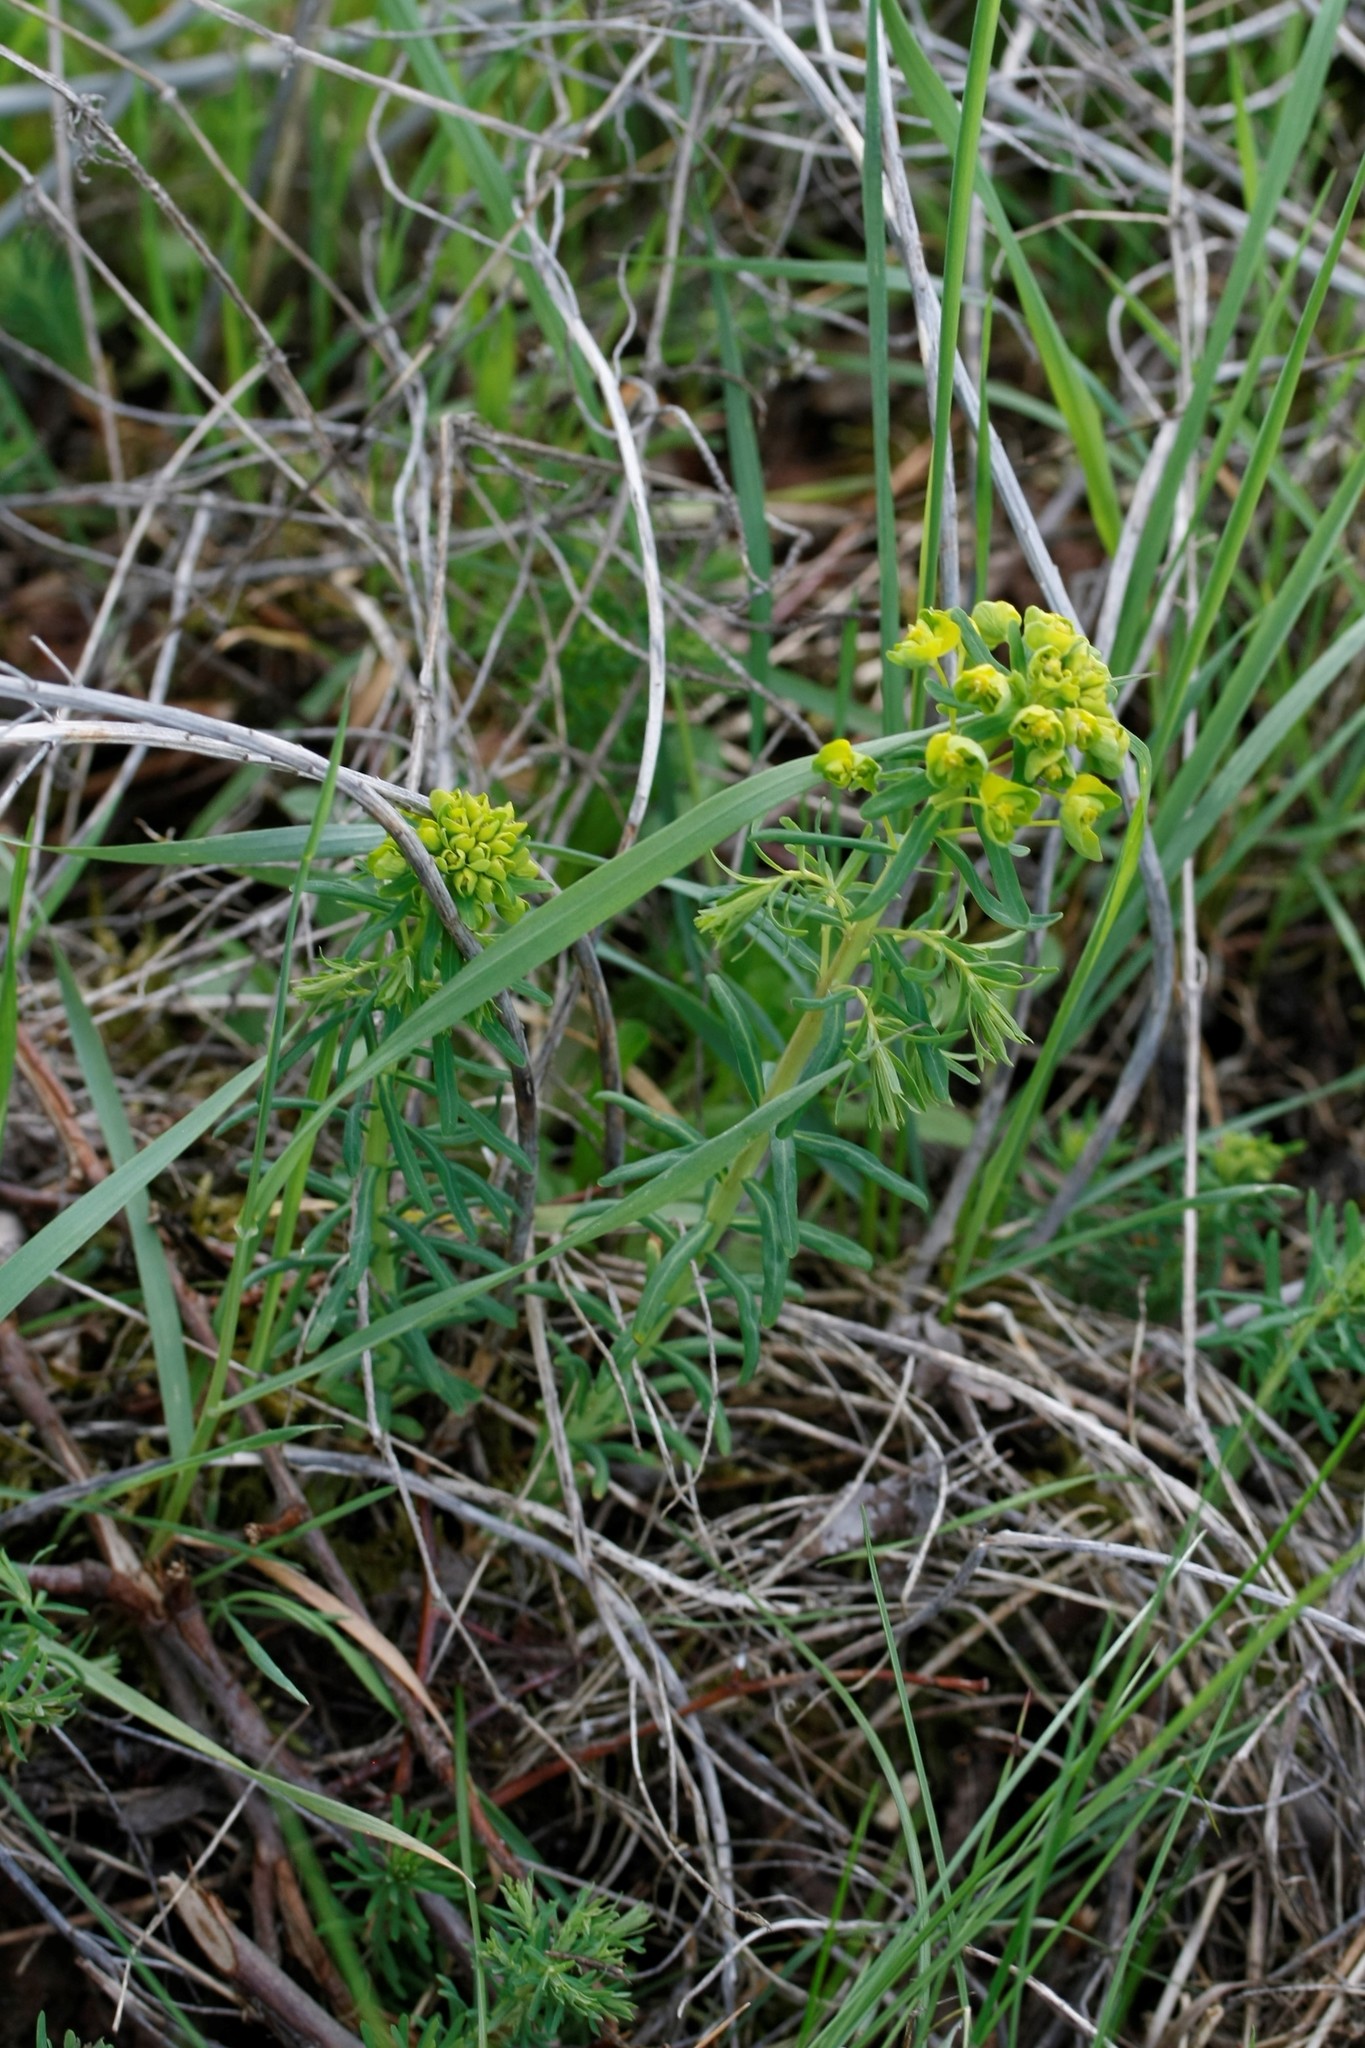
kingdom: Plantae
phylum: Tracheophyta
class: Magnoliopsida
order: Malpighiales
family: Euphorbiaceae
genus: Euphorbia
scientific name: Euphorbia cyparissias
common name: Cypress spurge
